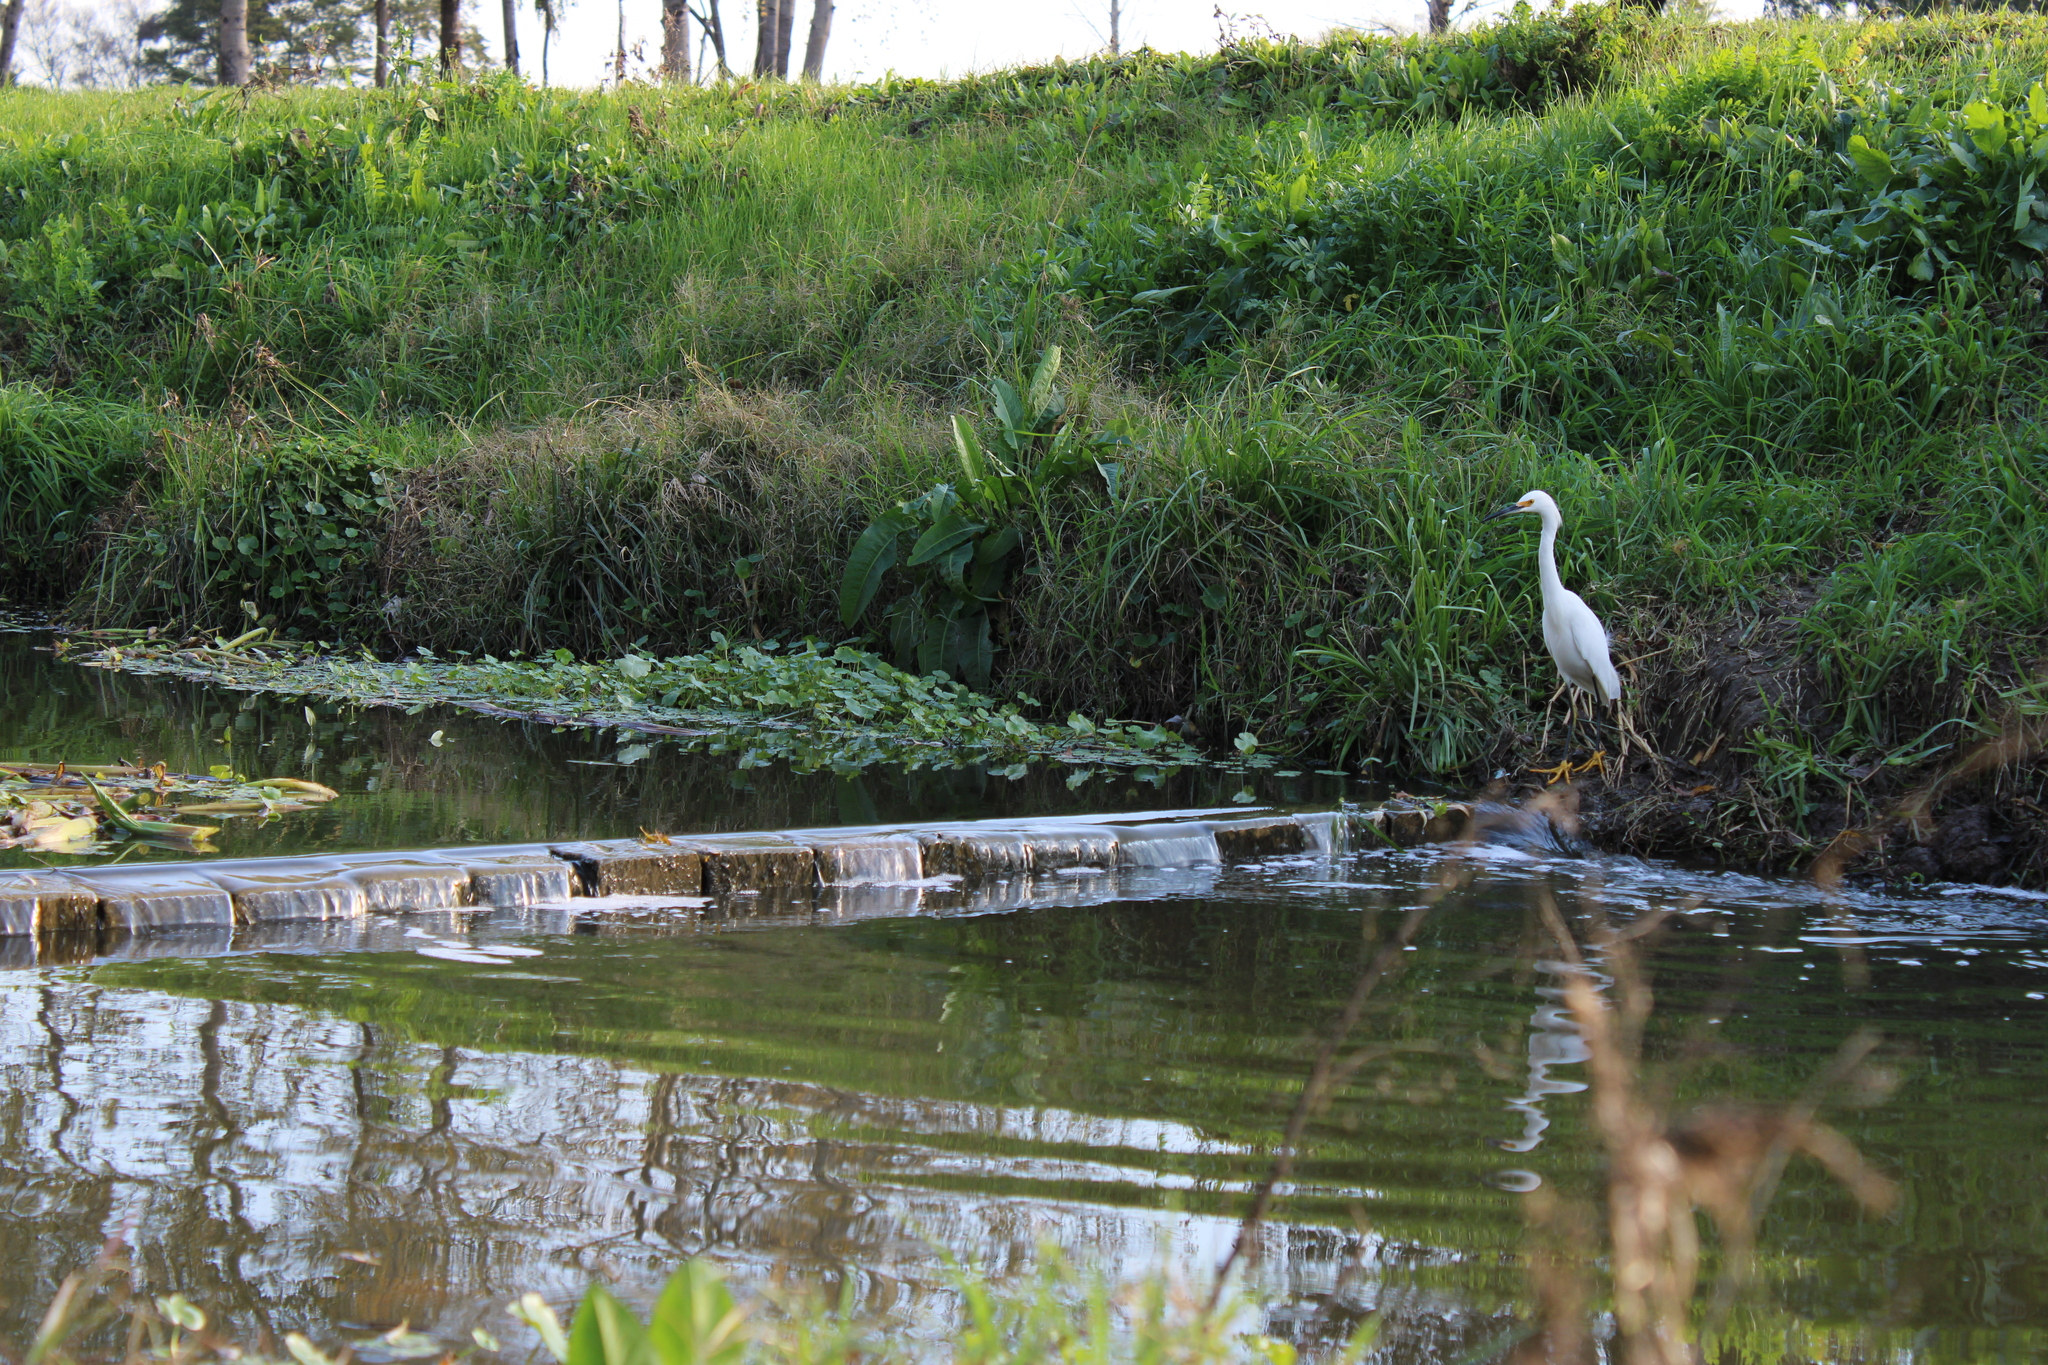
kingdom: Animalia
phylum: Chordata
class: Aves
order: Pelecaniformes
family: Ardeidae
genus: Egretta
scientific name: Egretta thula
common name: Snowy egret
